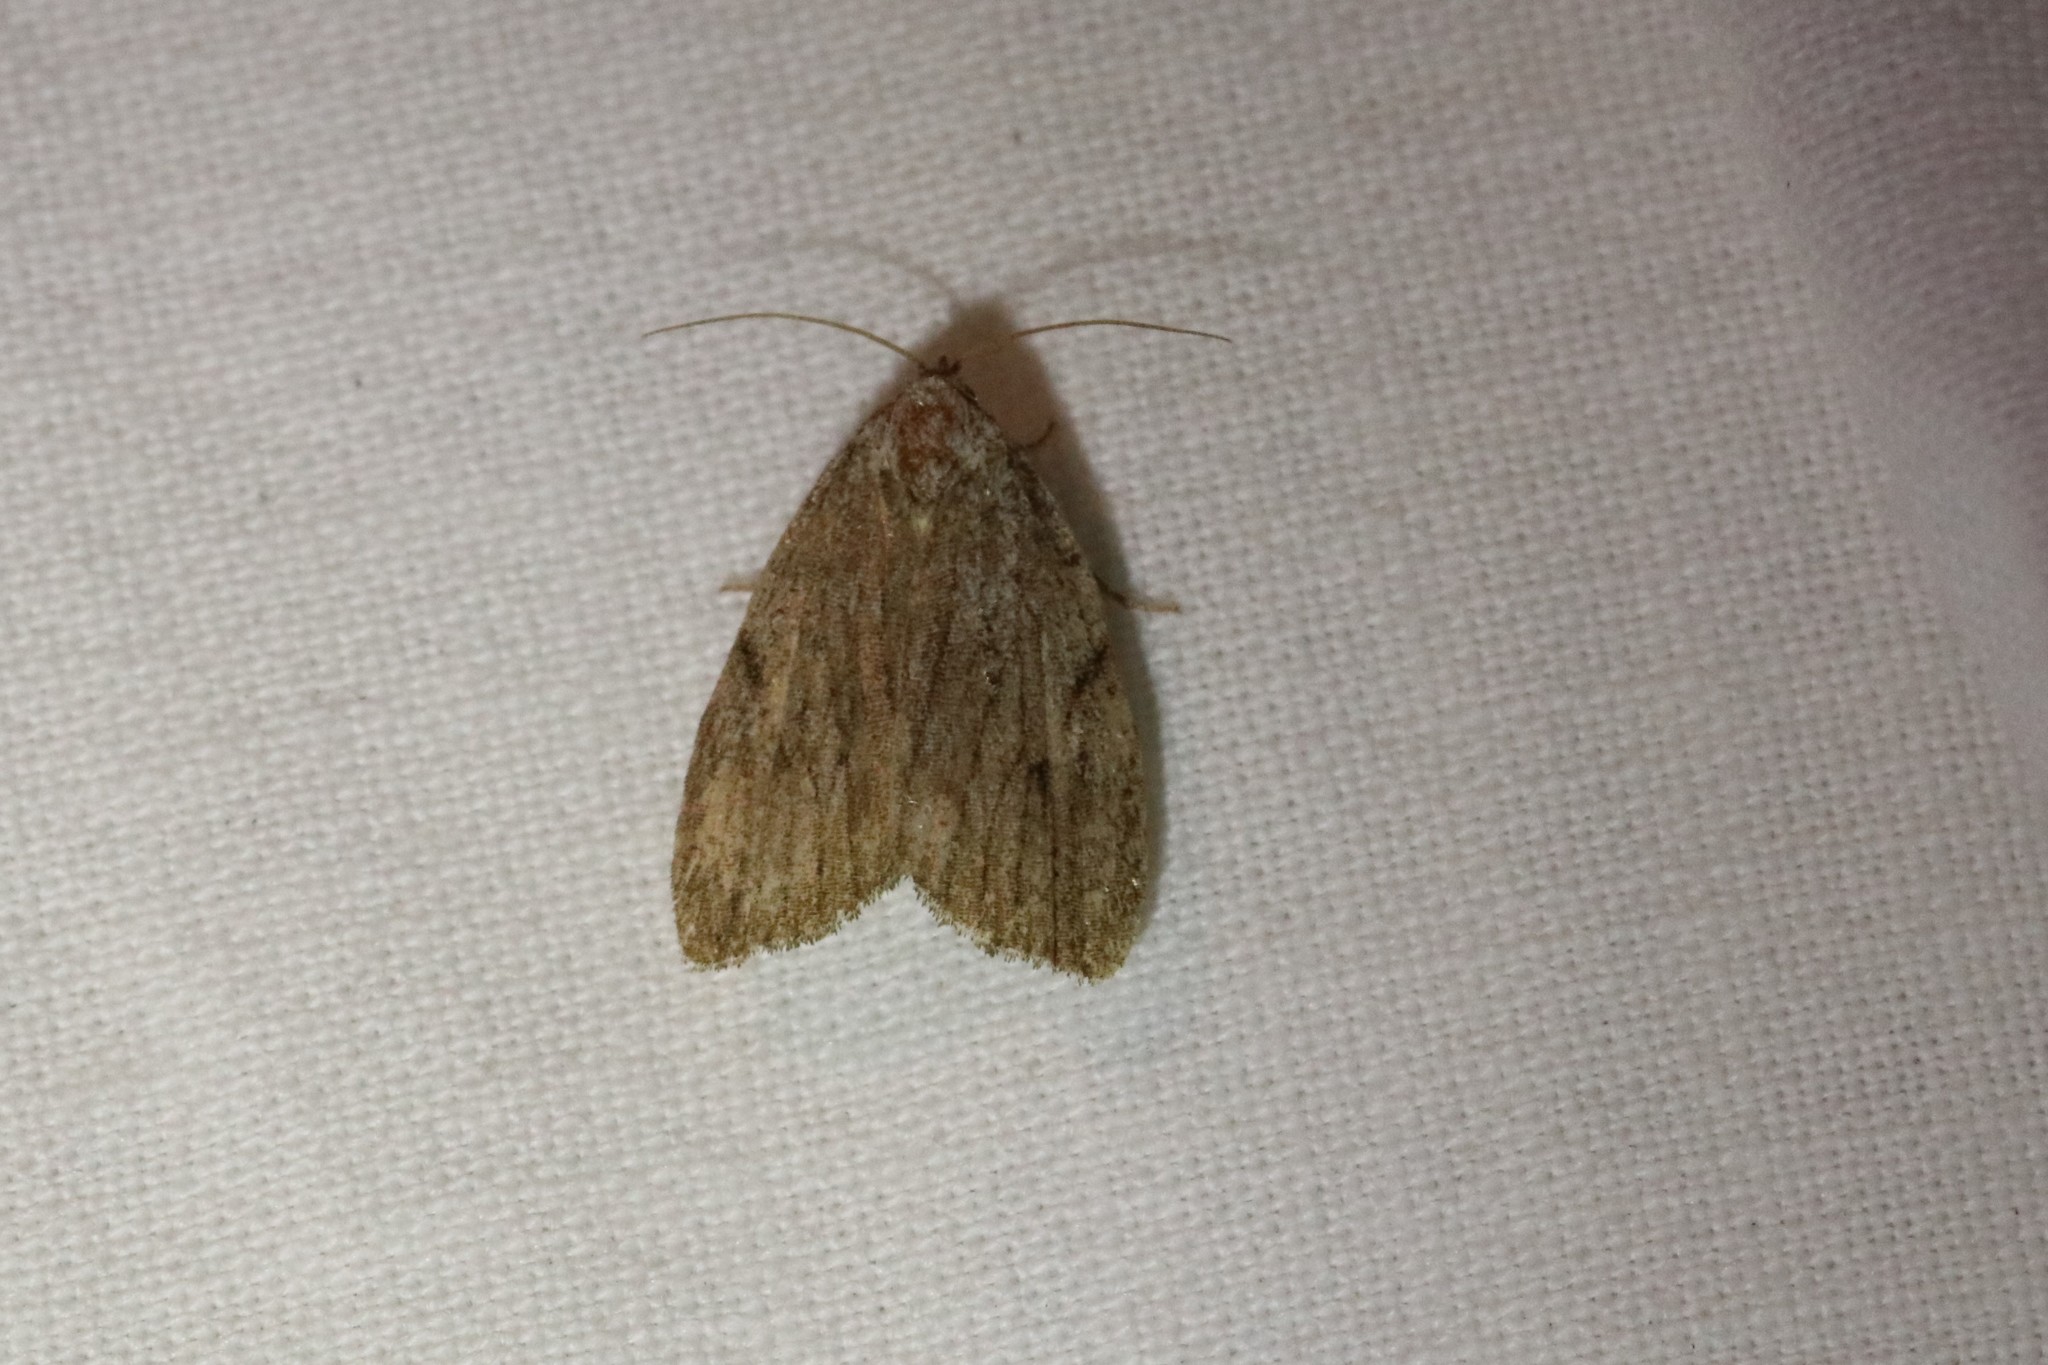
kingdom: Animalia
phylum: Arthropoda
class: Insecta
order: Lepidoptera
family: Noctuidae
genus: Balsa
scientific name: Balsa tristrigella
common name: Three-lined balsa moth
